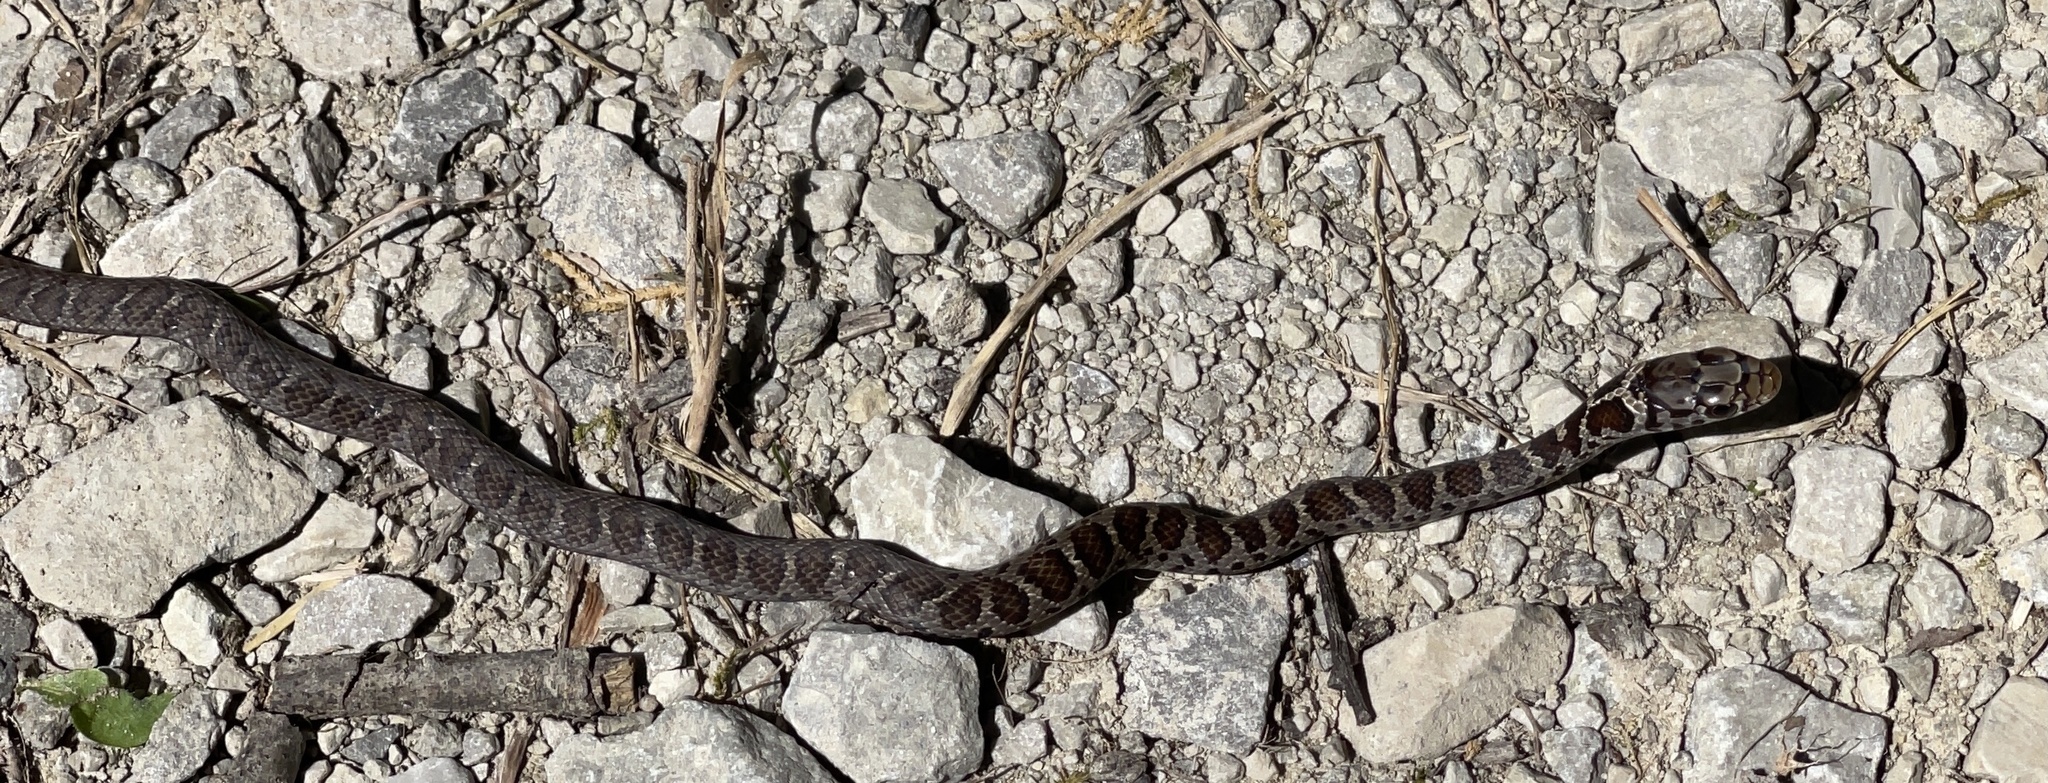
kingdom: Animalia
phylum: Chordata
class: Squamata
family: Colubridae
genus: Coluber
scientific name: Coluber constrictor
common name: Eastern racer
